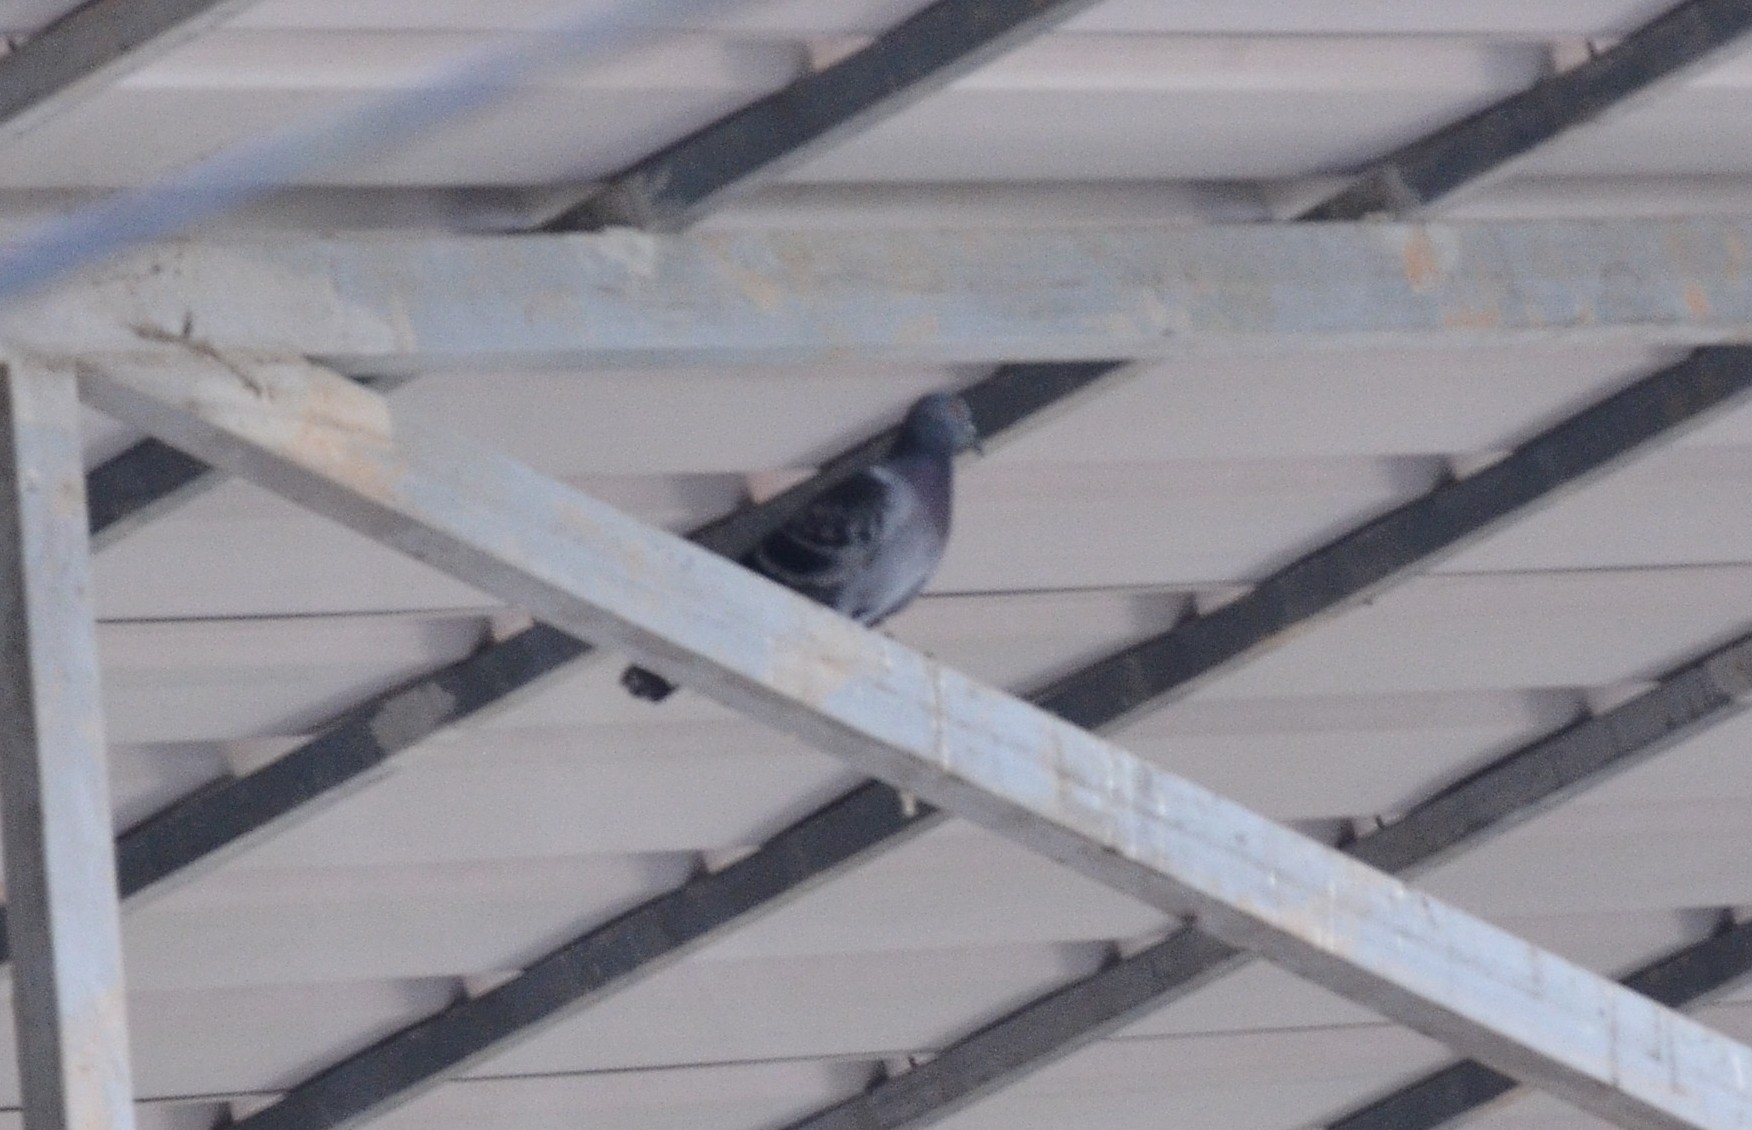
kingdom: Animalia
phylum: Chordata
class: Aves
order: Columbiformes
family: Columbidae
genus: Columba
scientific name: Columba livia
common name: Rock pigeon
